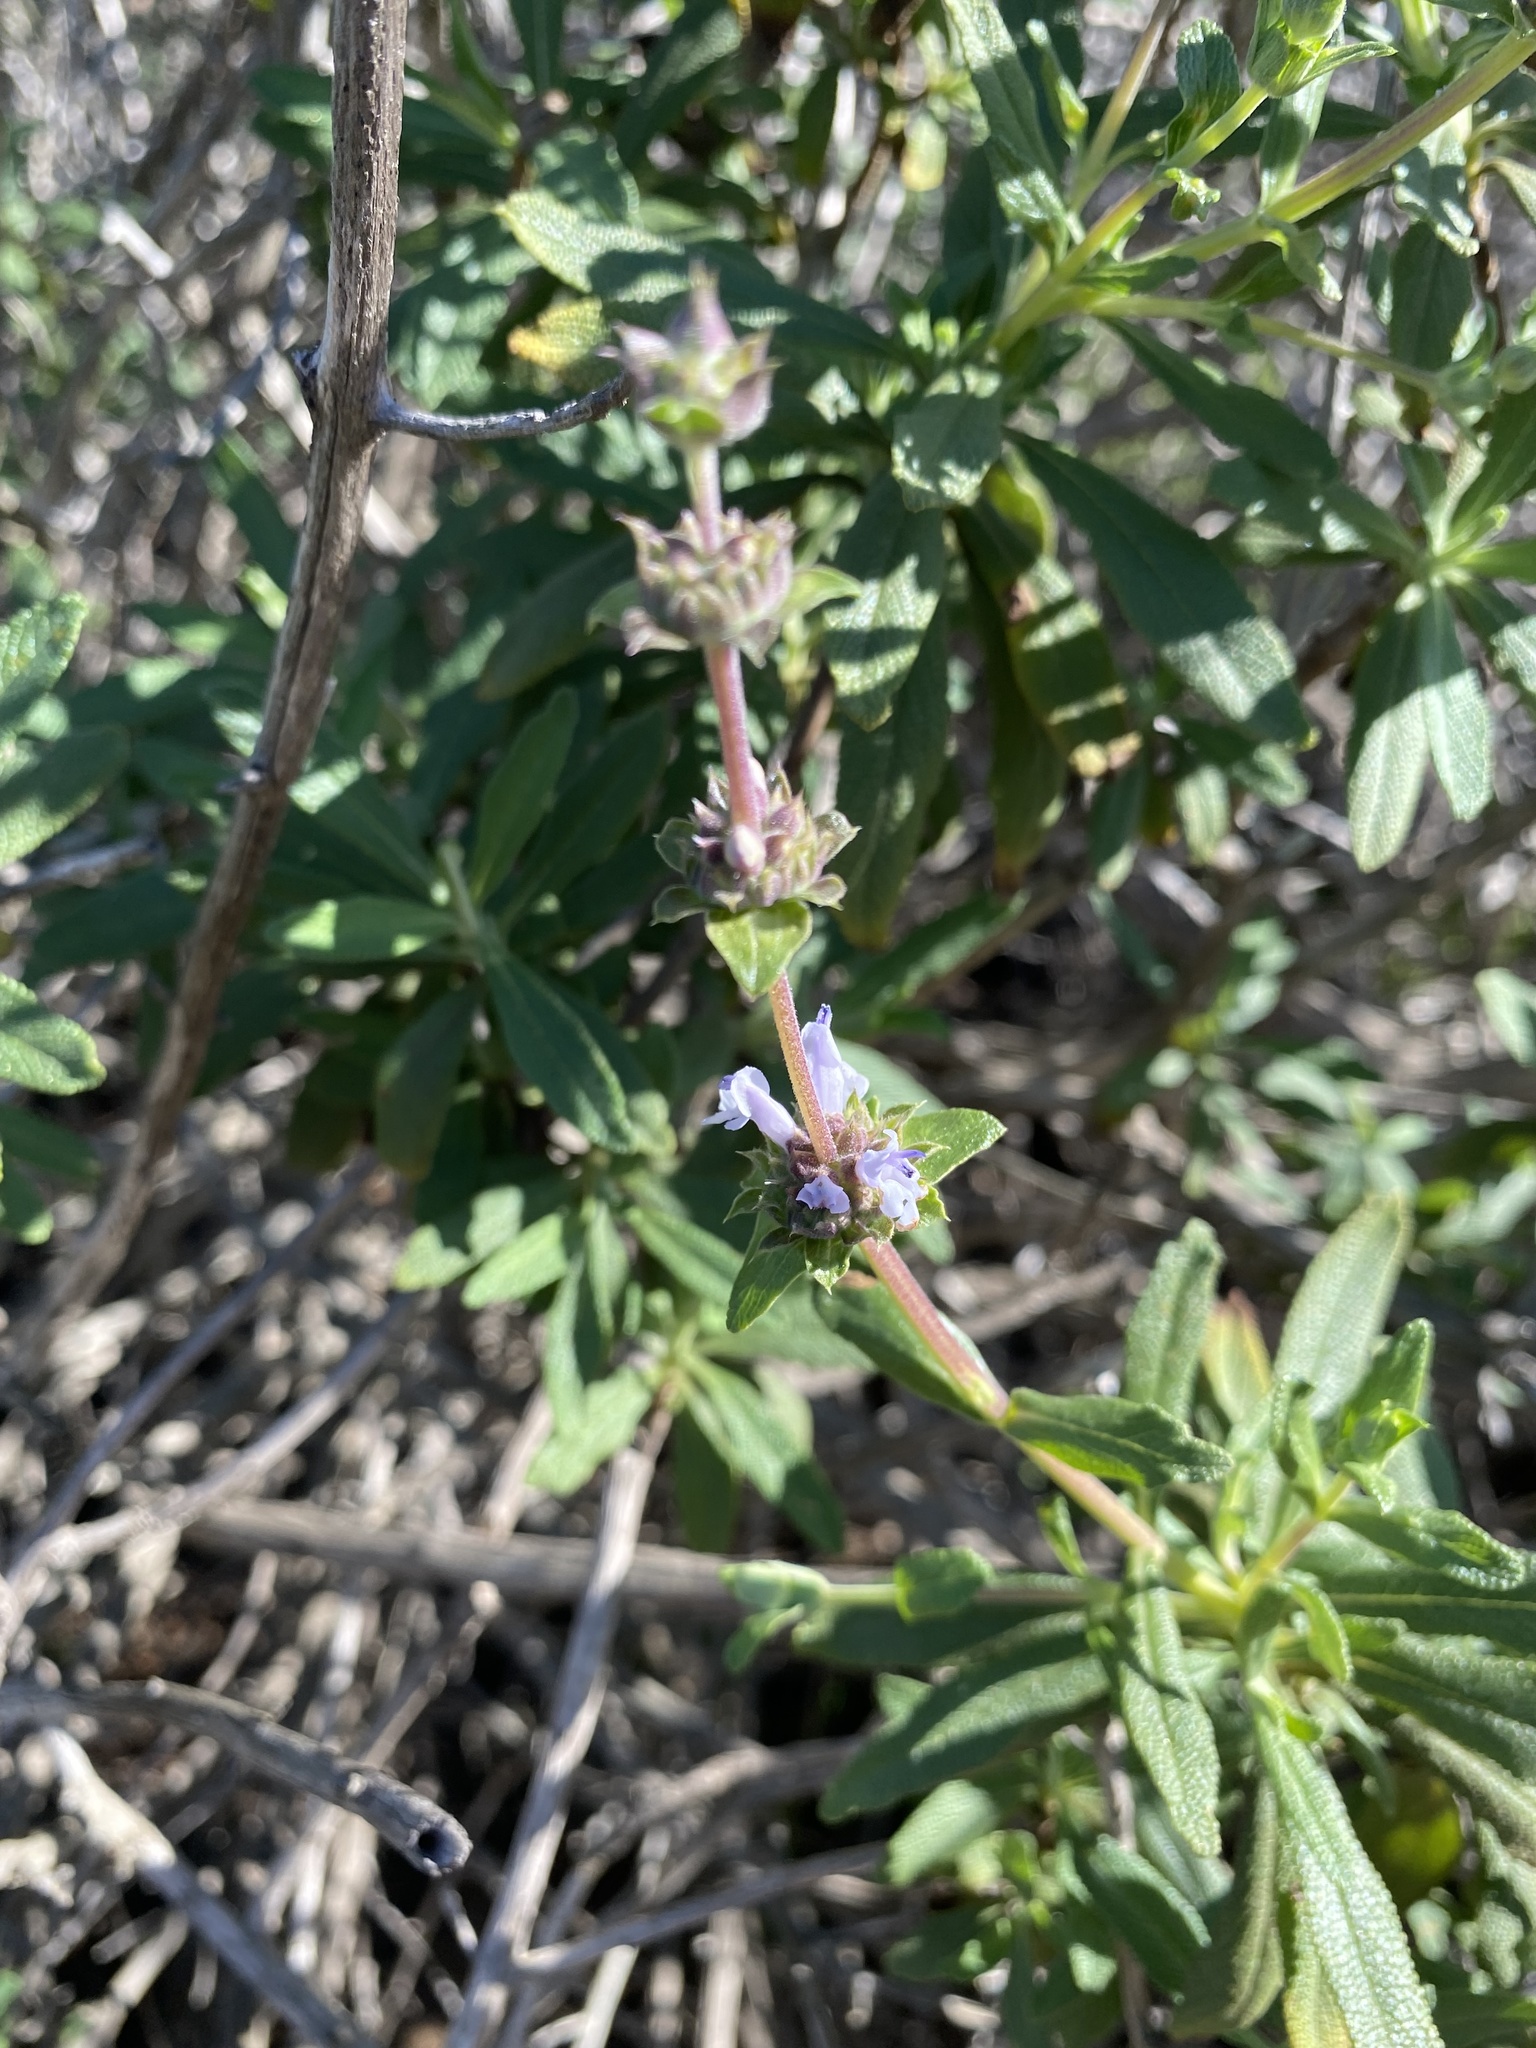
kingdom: Plantae
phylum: Tracheophyta
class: Magnoliopsida
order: Lamiales
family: Lamiaceae
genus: Salvia
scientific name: Salvia mellifera
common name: Black sage
